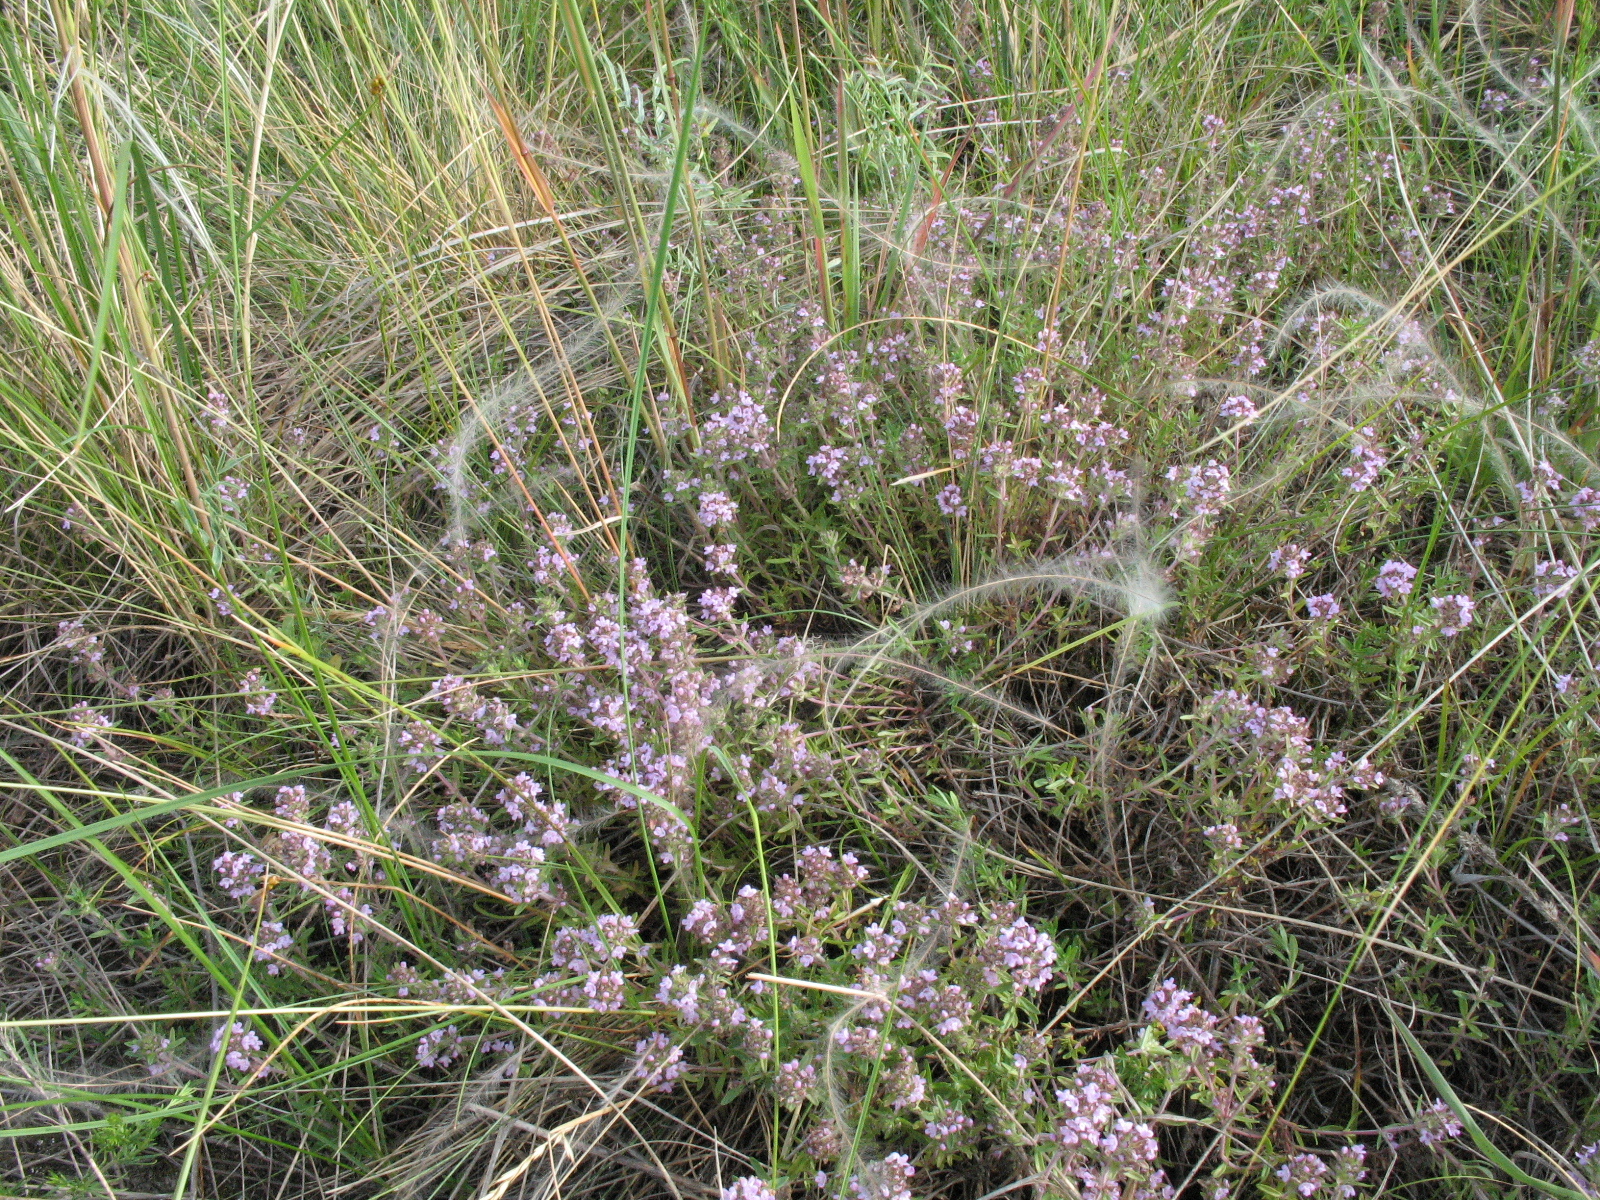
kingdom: Plantae
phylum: Tracheophyta
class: Magnoliopsida
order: Lamiales
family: Lamiaceae
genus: Thymus
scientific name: Thymus pannonicus
